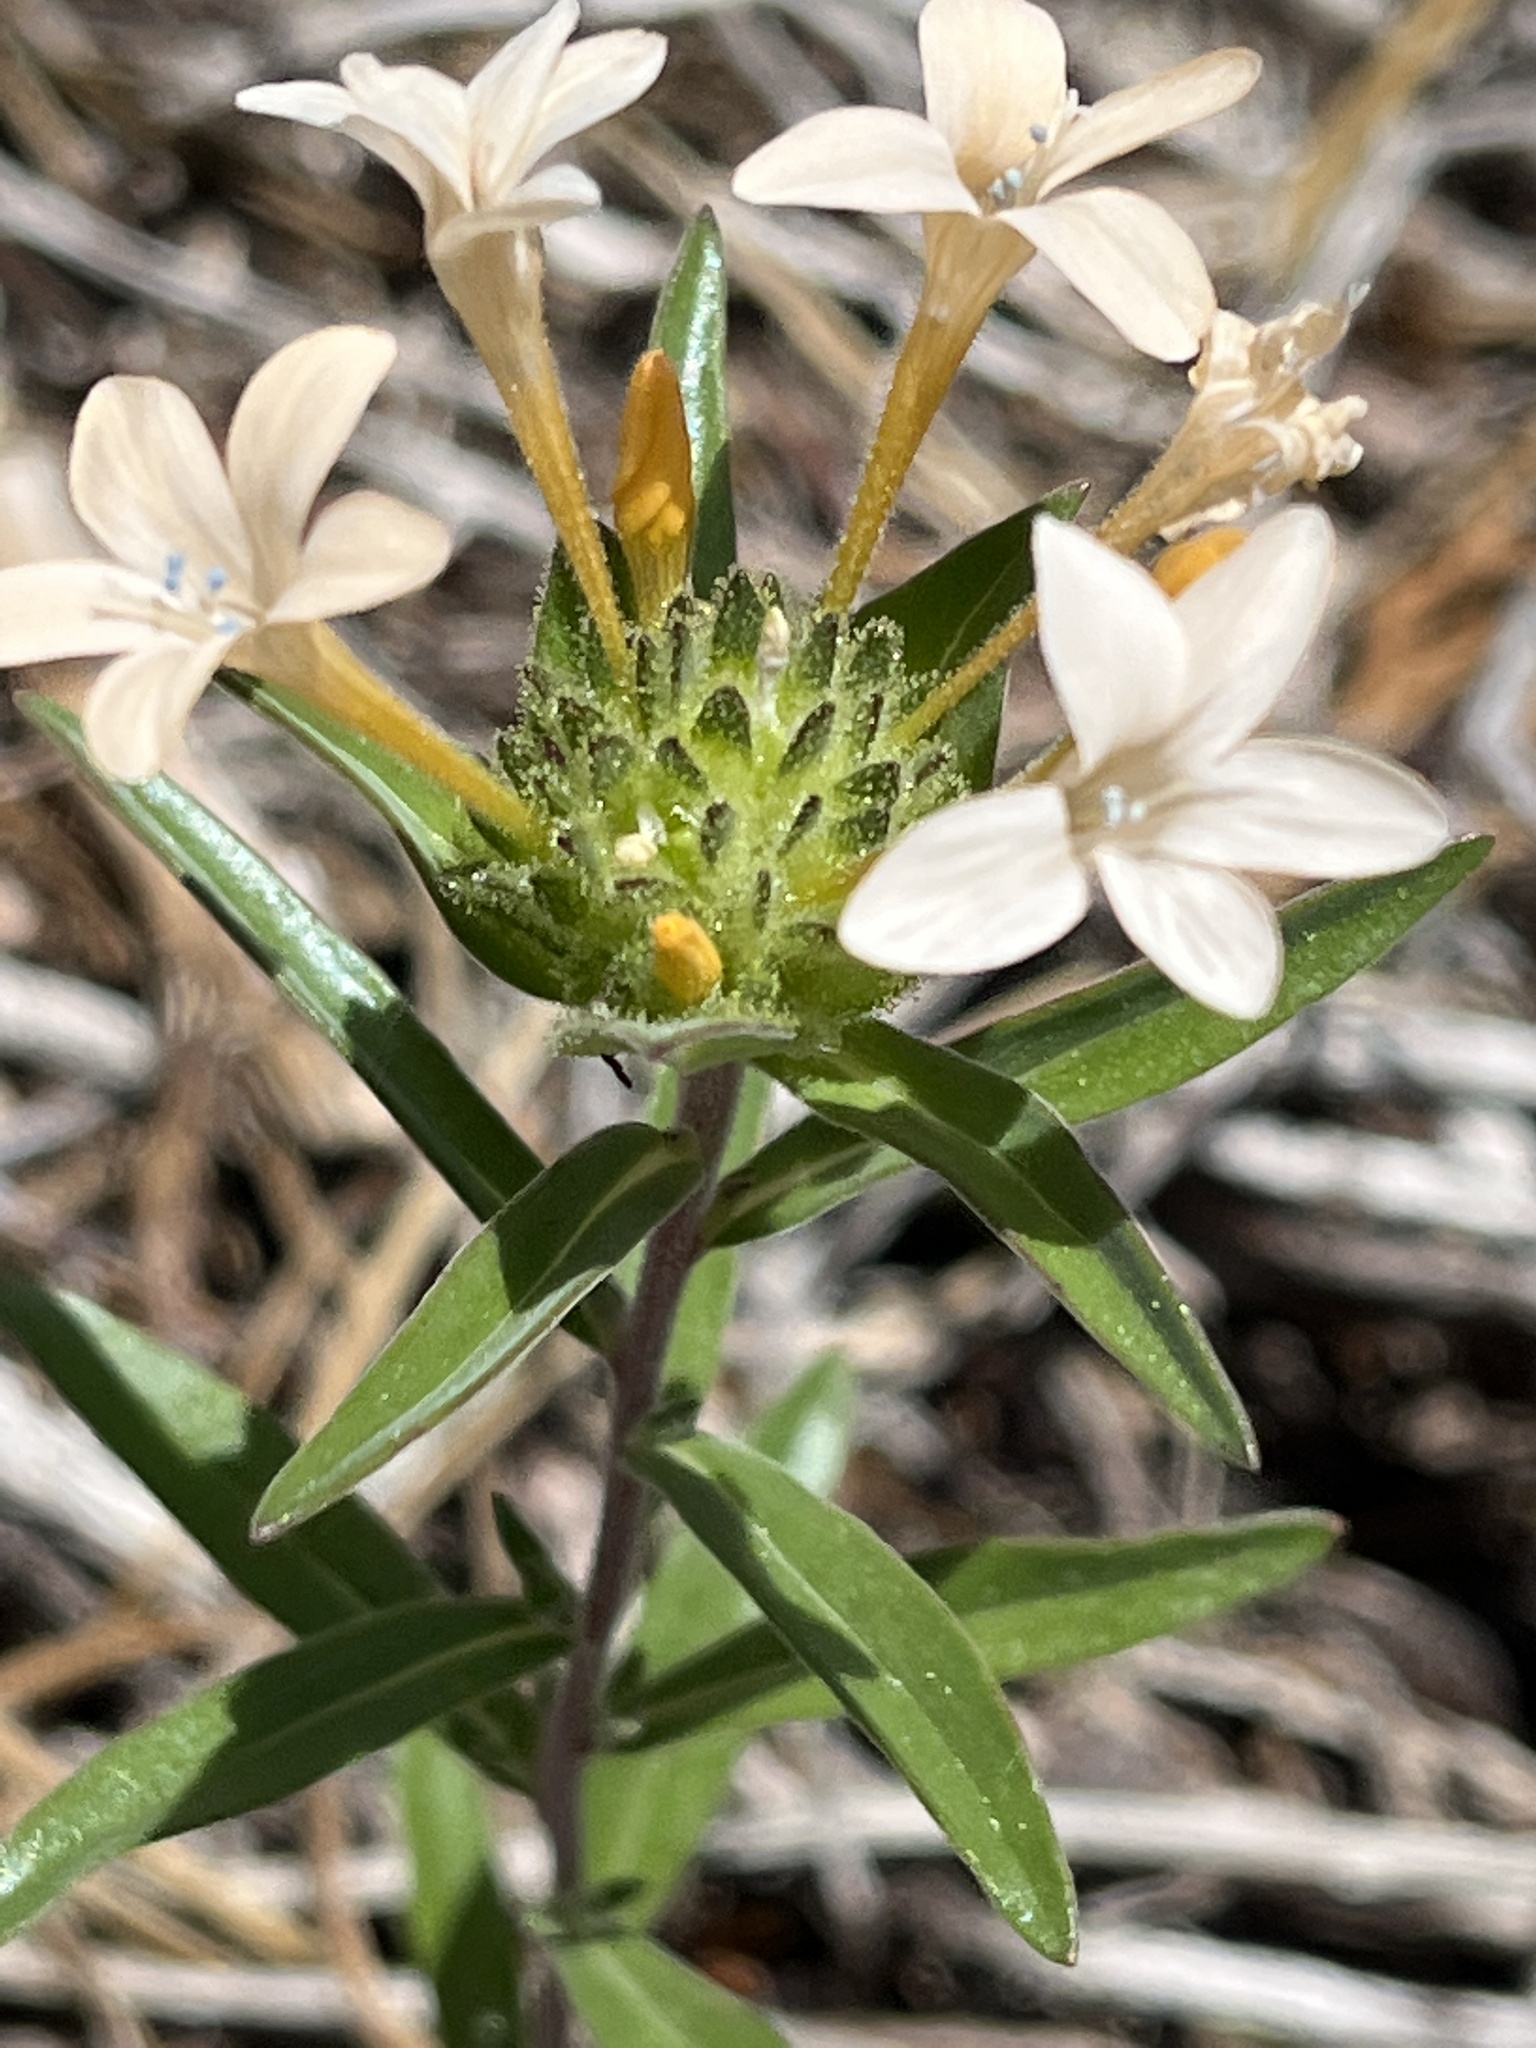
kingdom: Plantae
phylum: Tracheophyta
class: Magnoliopsida
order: Ericales
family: Polemoniaceae
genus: Collomia
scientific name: Collomia grandiflora
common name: California strawflower
